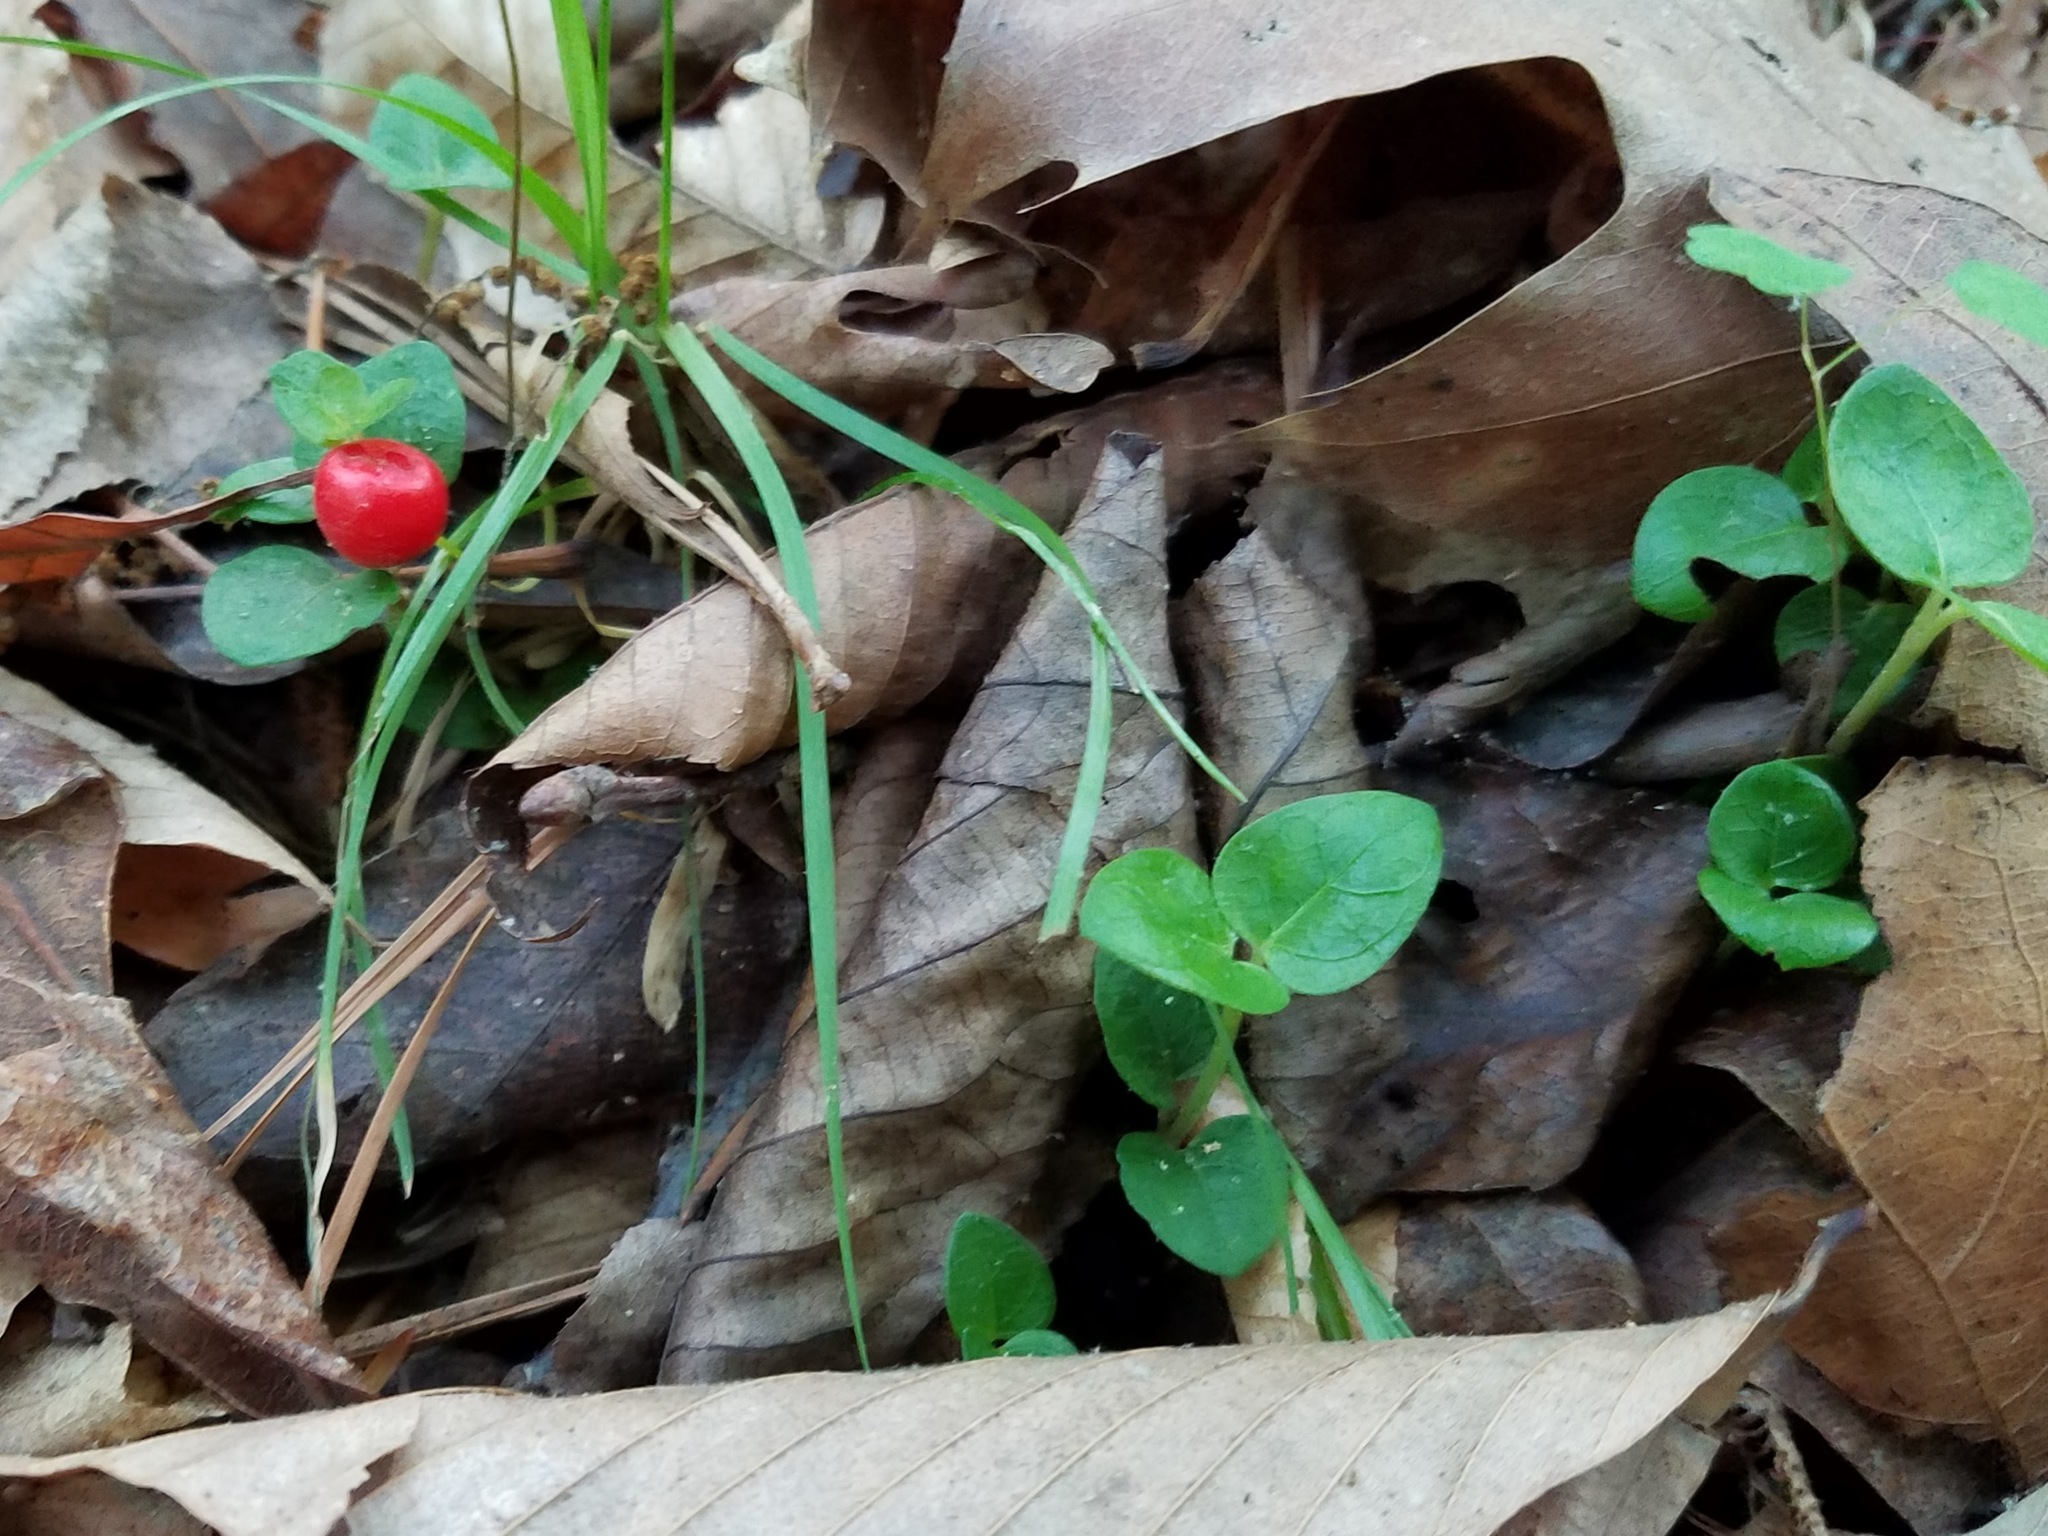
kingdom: Plantae
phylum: Tracheophyta
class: Magnoliopsida
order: Gentianales
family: Rubiaceae
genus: Mitchella
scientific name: Mitchella repens
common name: Partridge-berry
